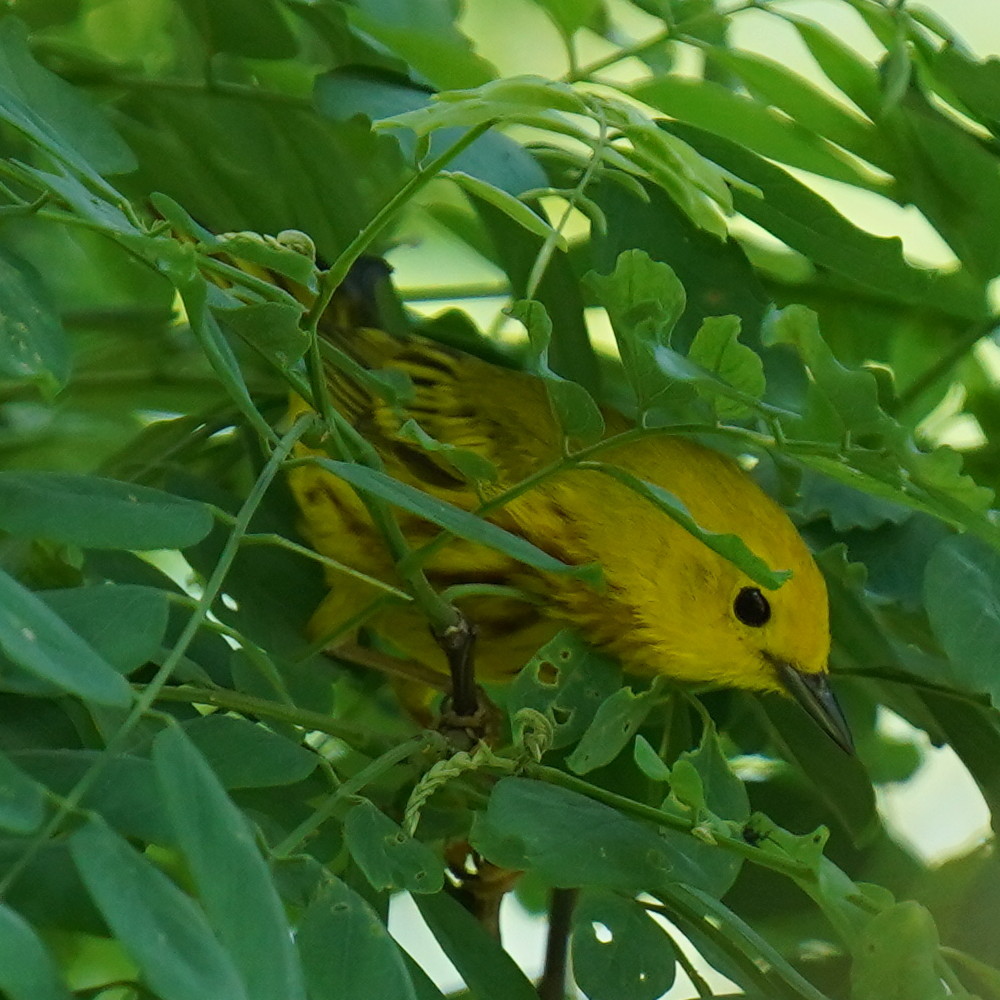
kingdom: Animalia
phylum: Chordata
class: Aves
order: Passeriformes
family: Parulidae
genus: Setophaga
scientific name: Setophaga petechia
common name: Yellow warbler
